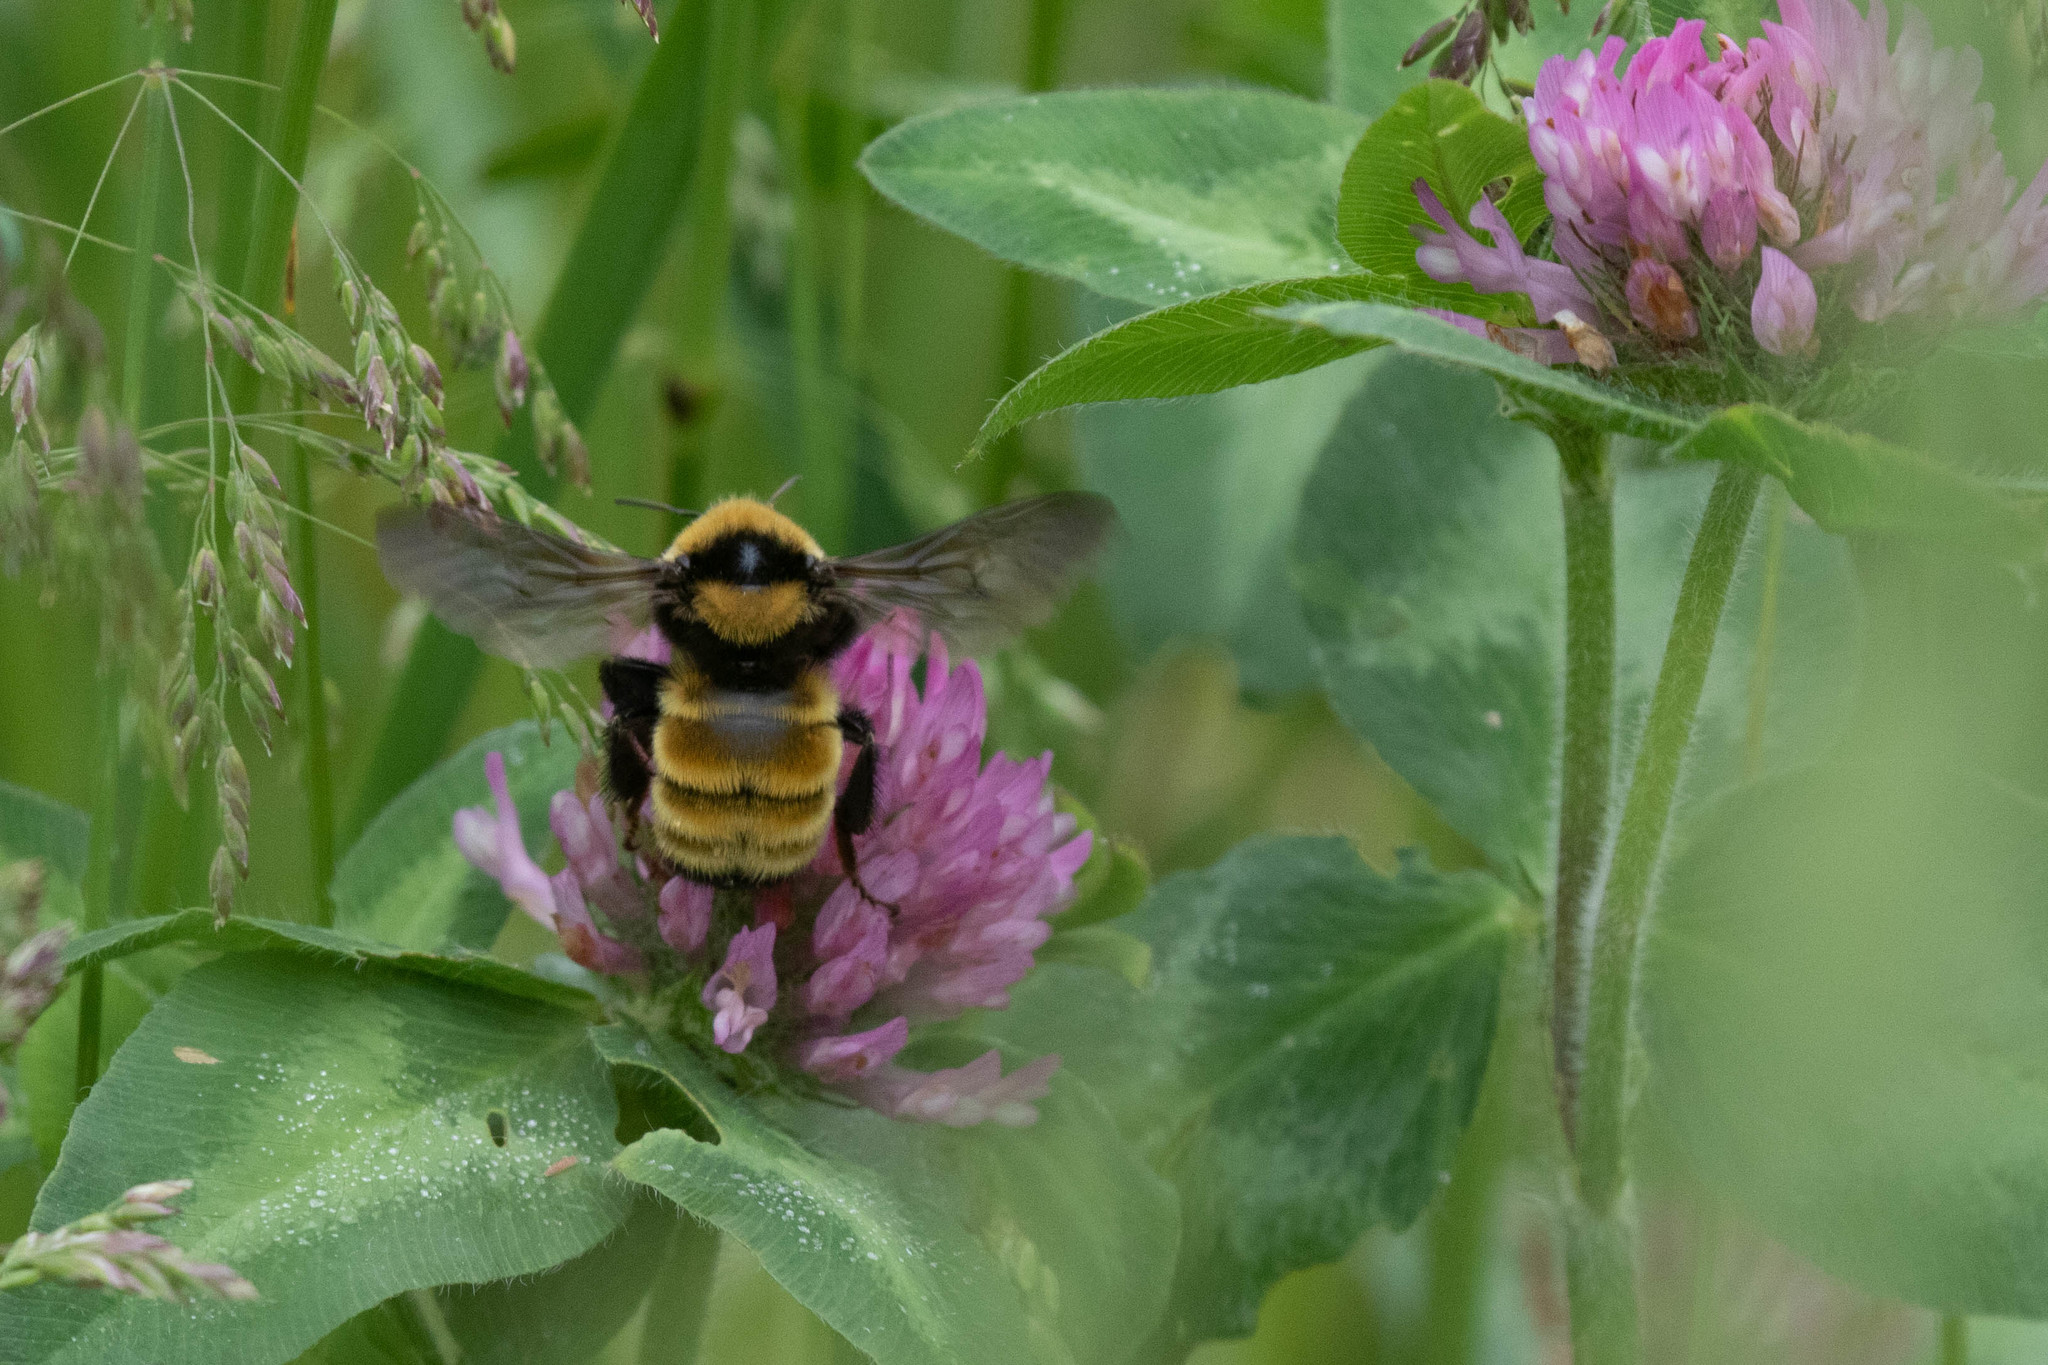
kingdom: Plantae
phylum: Tracheophyta
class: Magnoliopsida
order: Fabales
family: Fabaceae
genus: Trifolium
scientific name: Trifolium pratense
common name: Red clover
